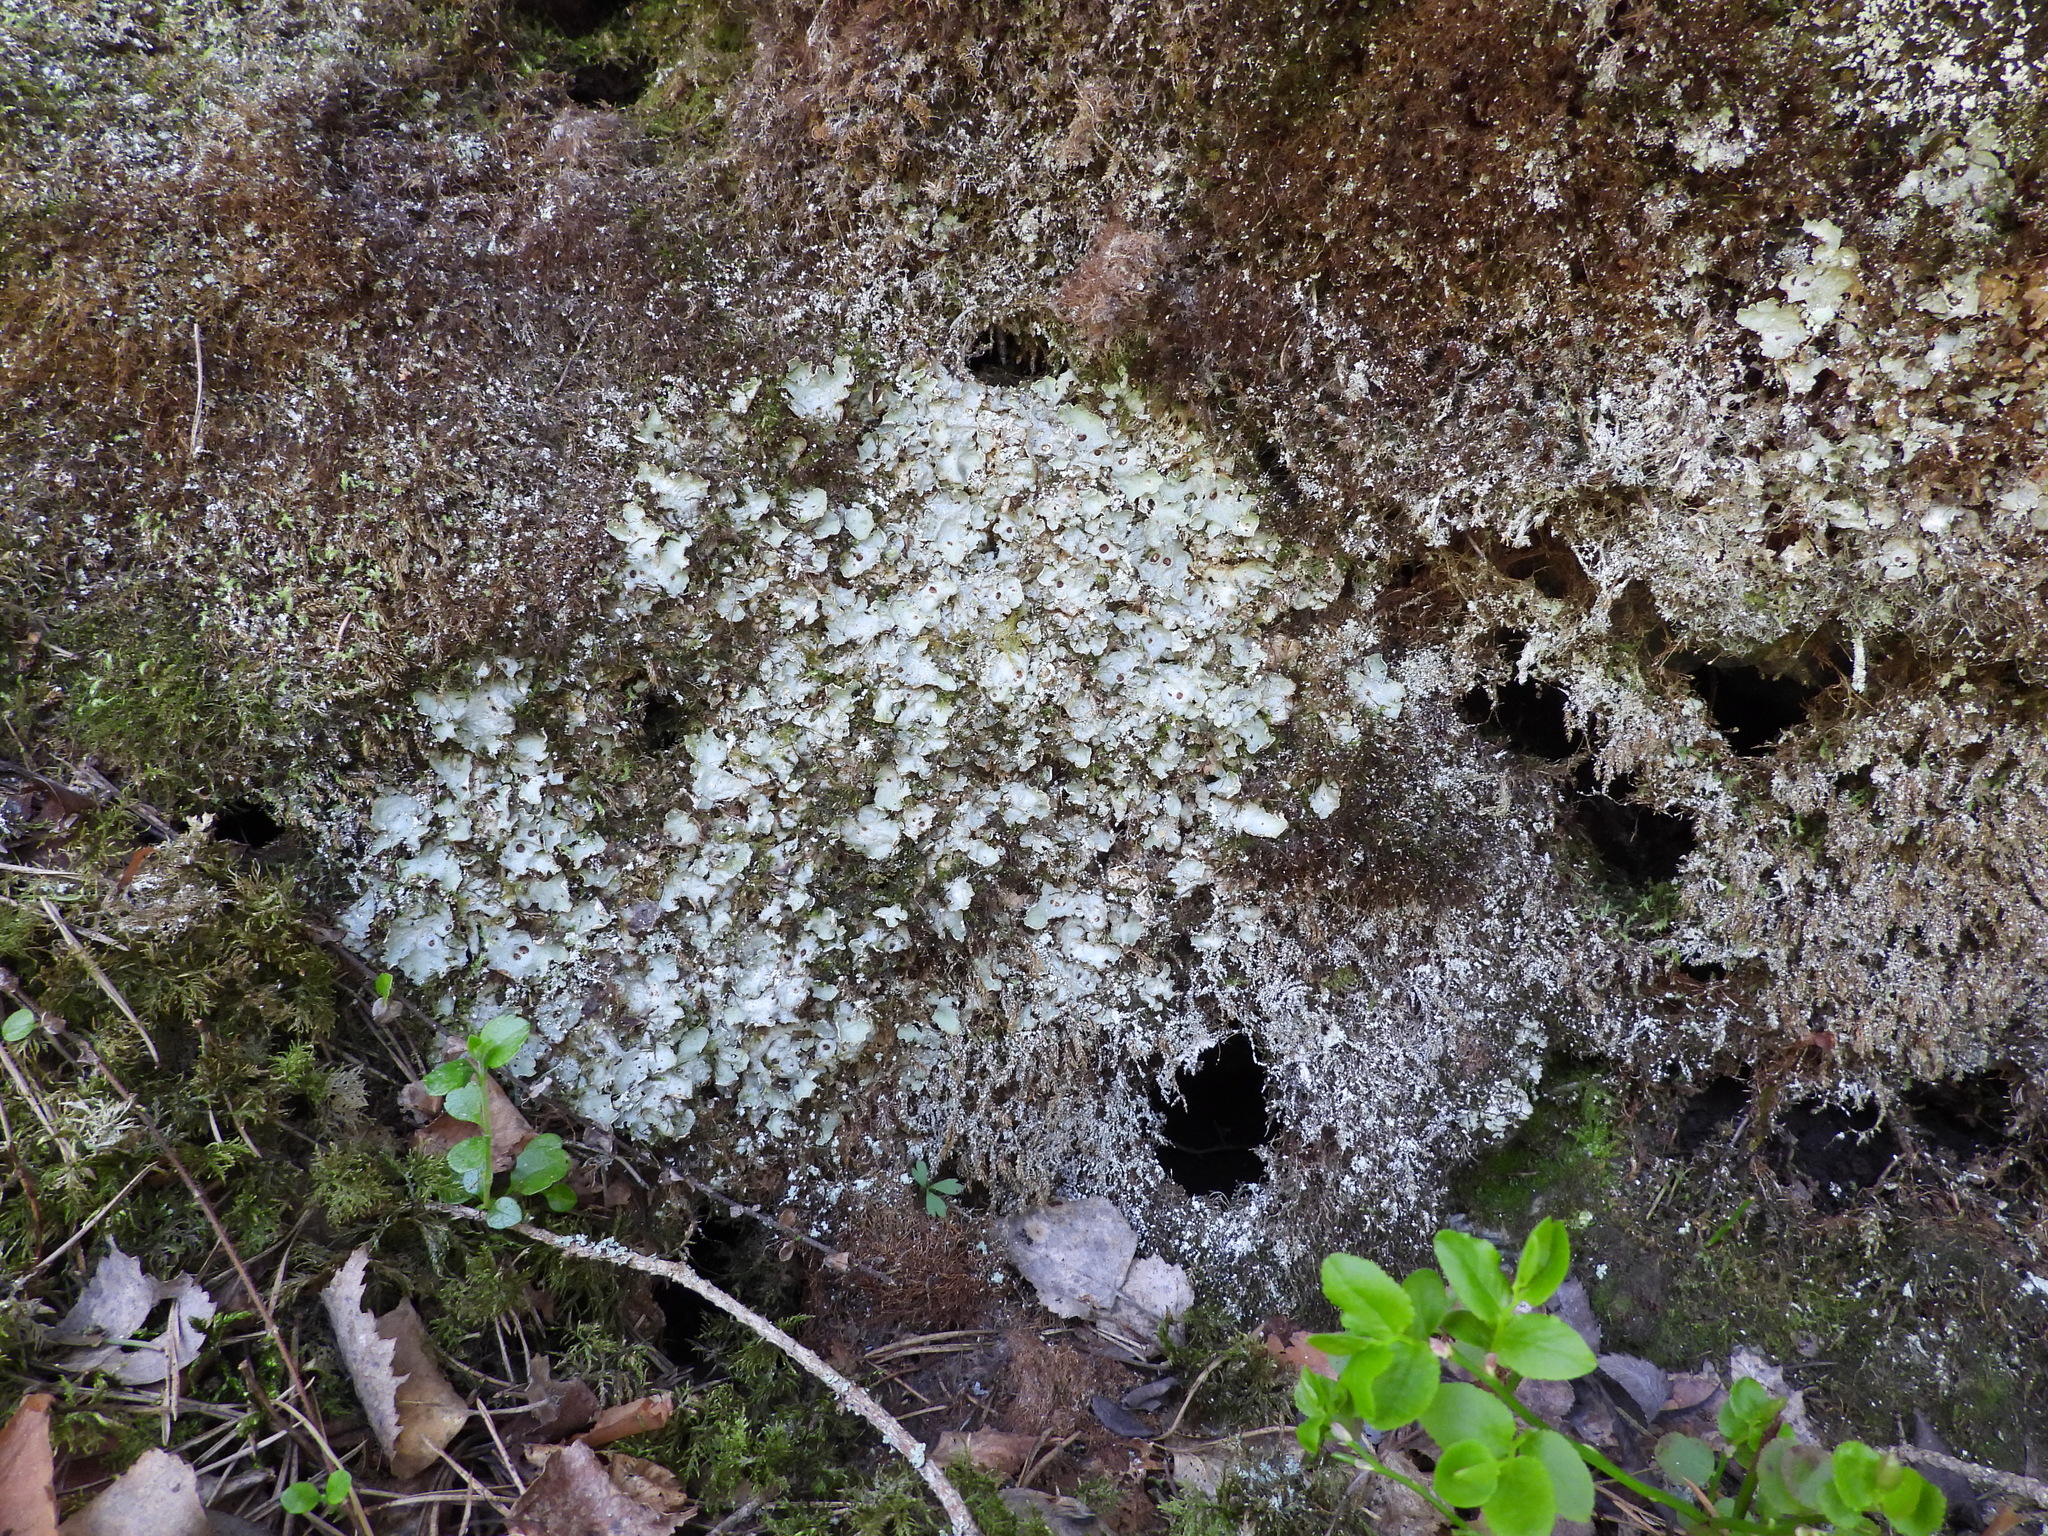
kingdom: Fungi
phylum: Ascomycota
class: Lecanoromycetes
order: Peltigerales
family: Peltigeraceae
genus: Solorina
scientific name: Solorina saccata
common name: Common chocolate chip lichen
